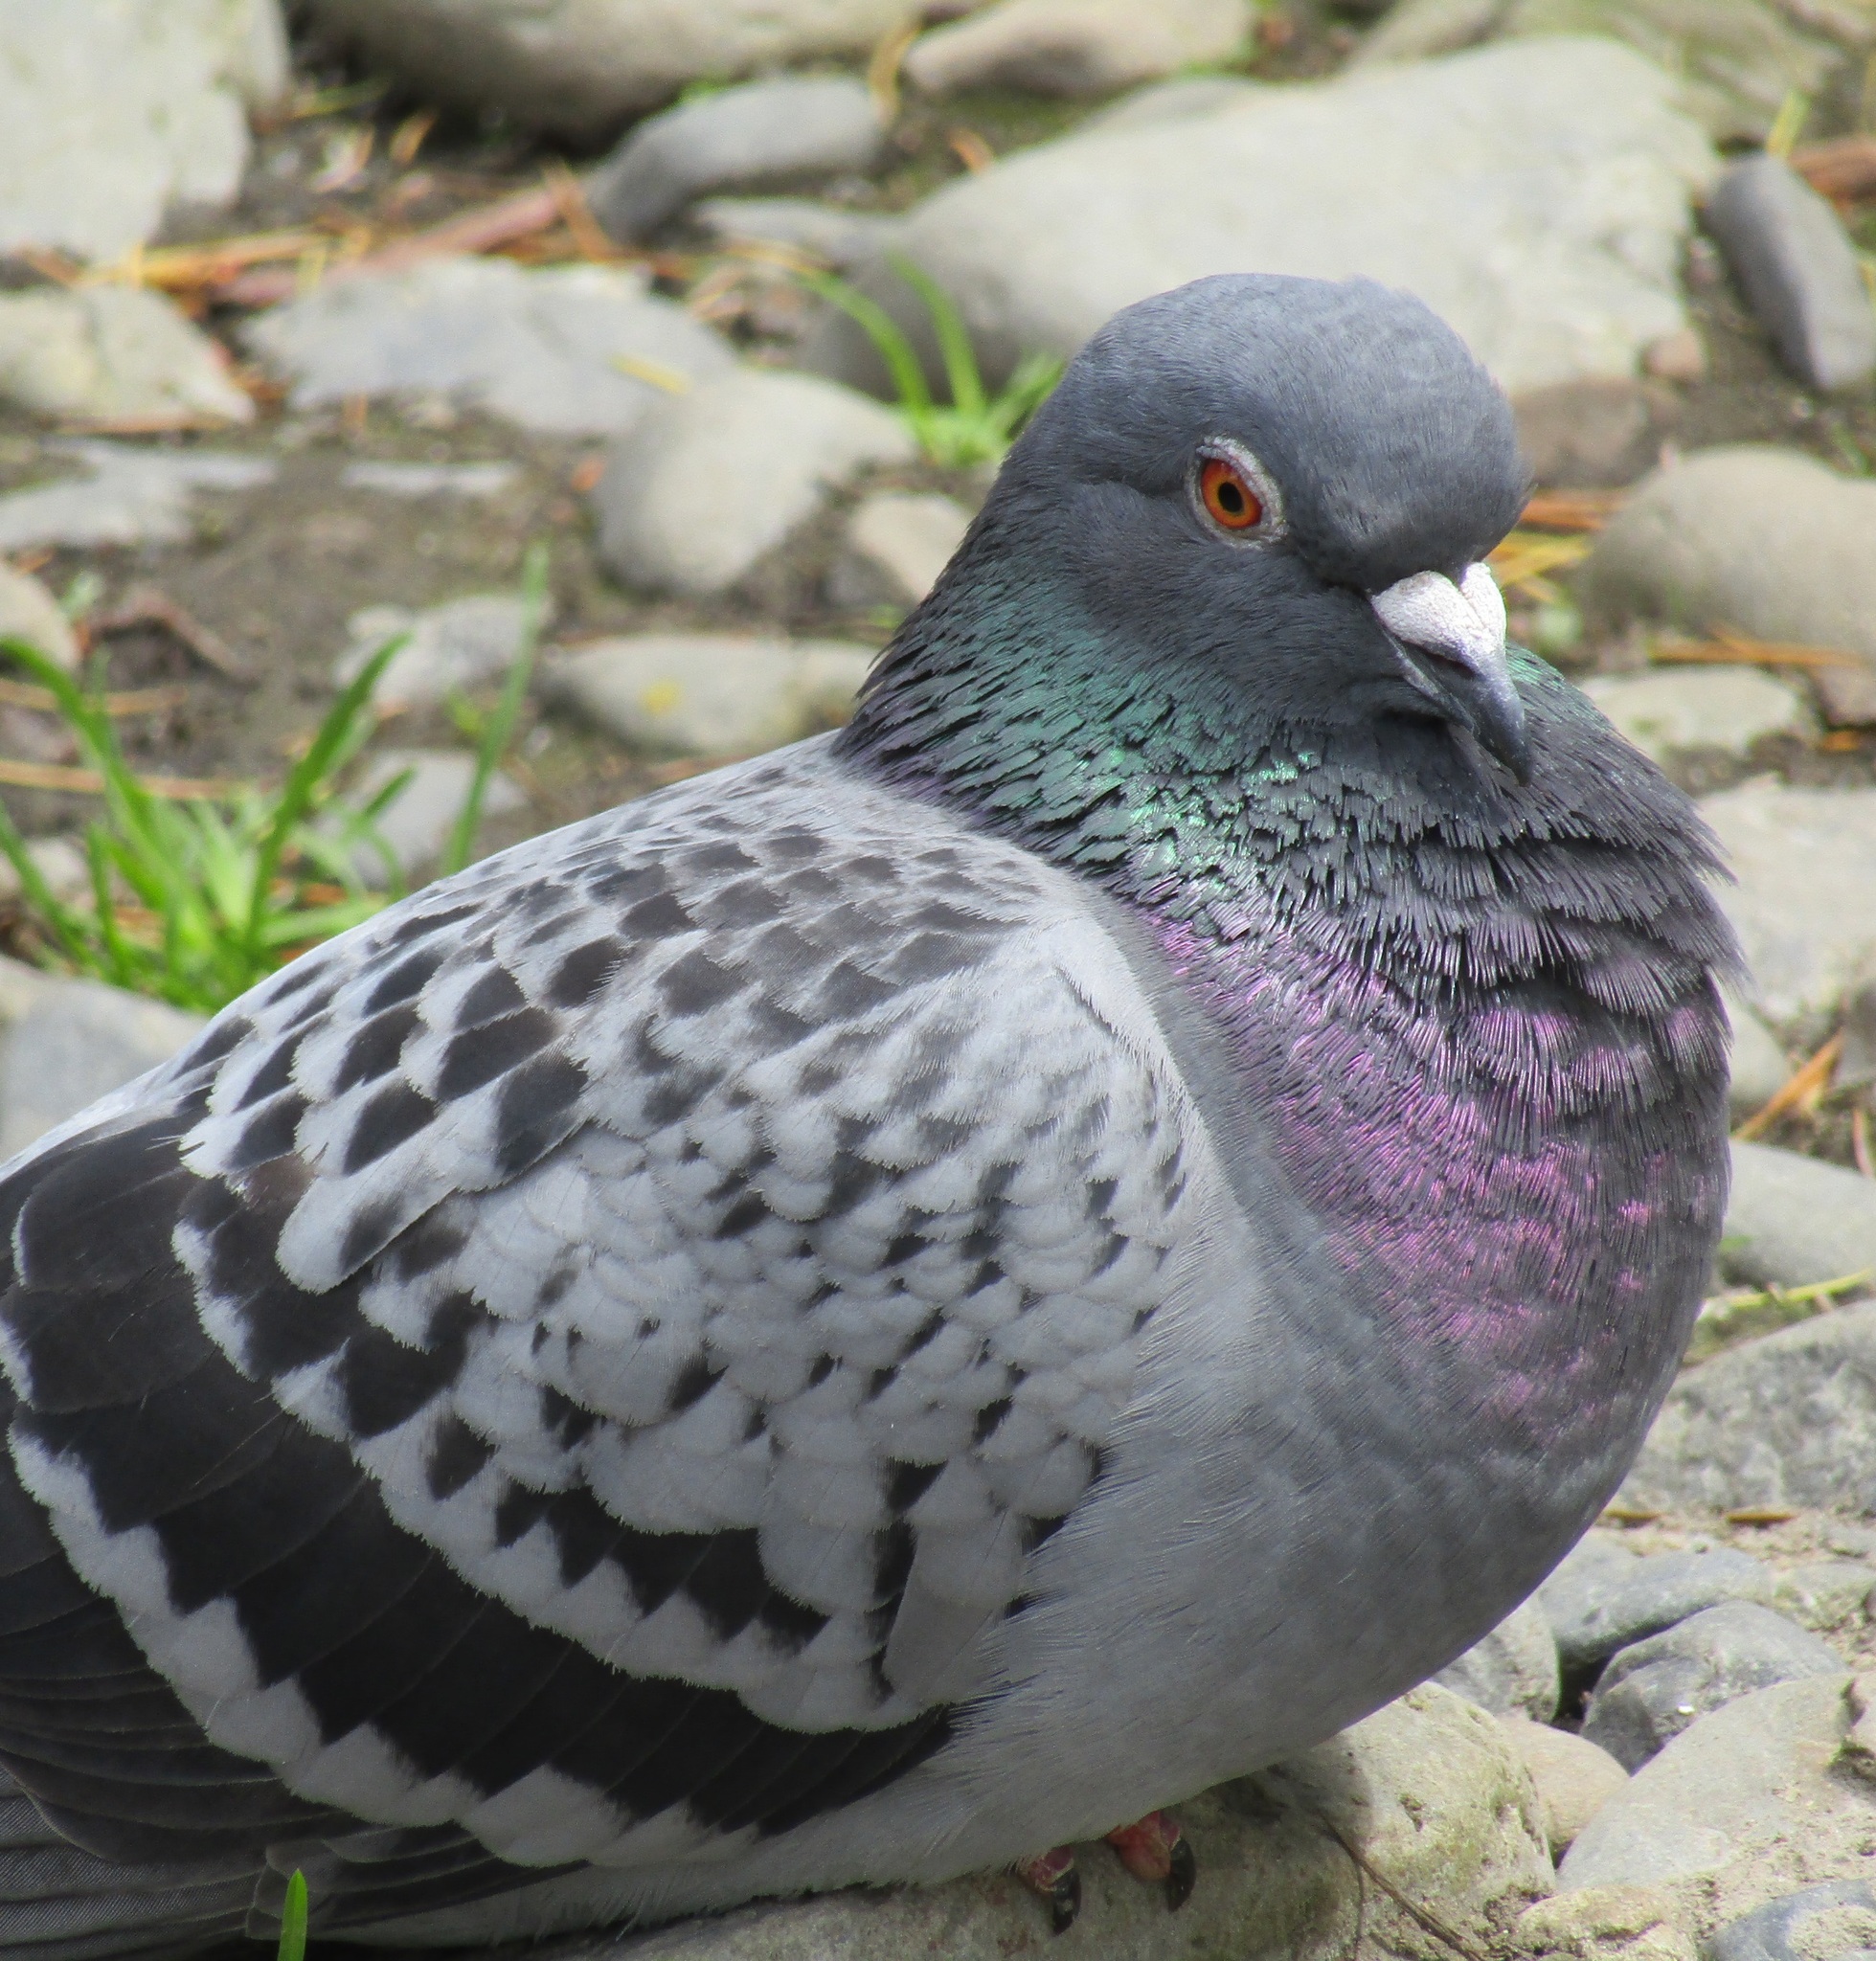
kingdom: Animalia
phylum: Chordata
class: Aves
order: Columbiformes
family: Columbidae
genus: Columba
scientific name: Columba livia
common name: Rock pigeon
